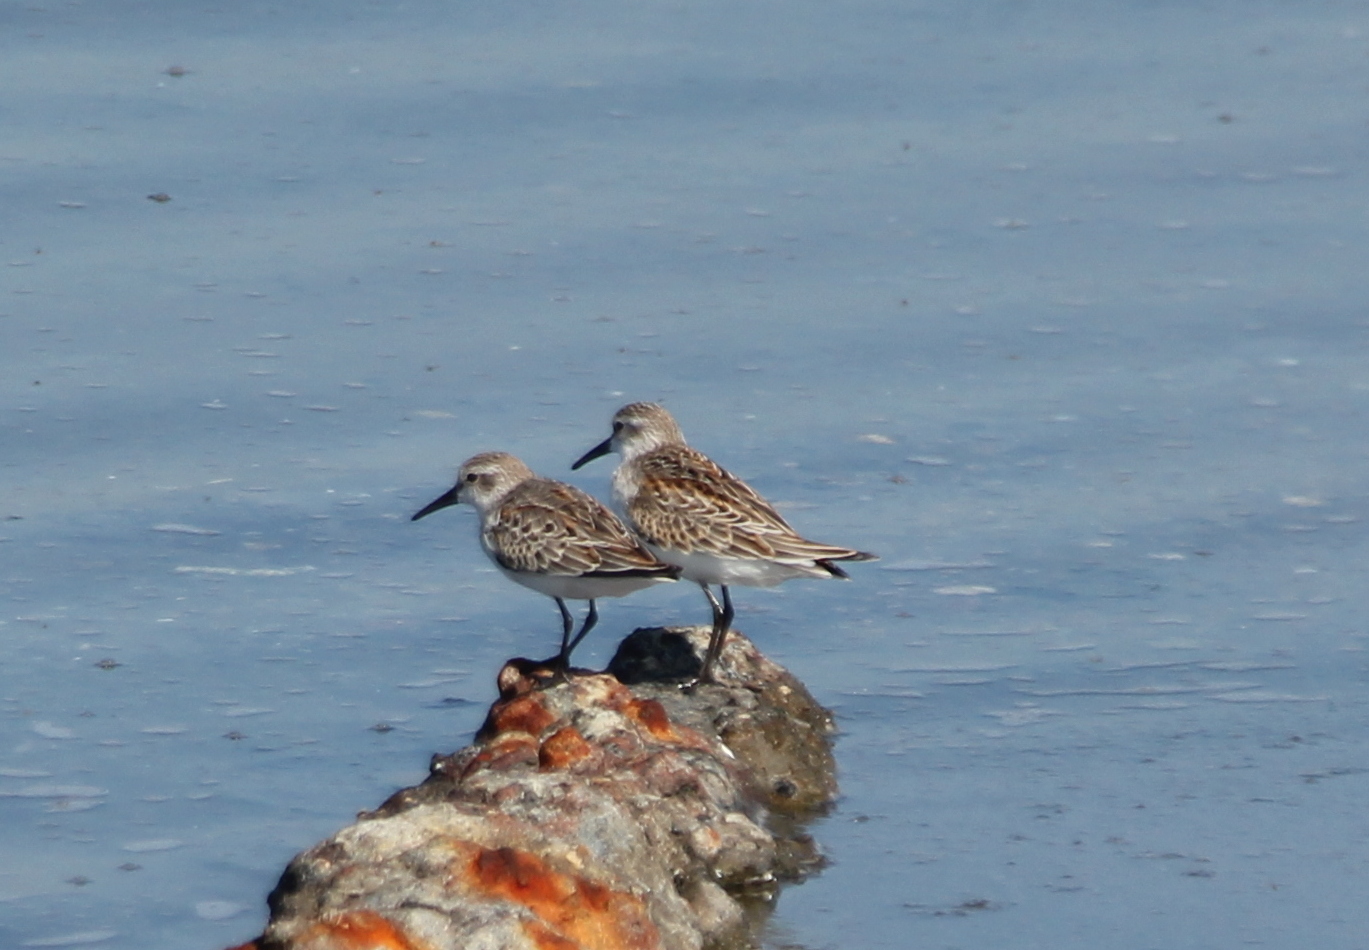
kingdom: Animalia
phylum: Chordata
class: Aves
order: Charadriiformes
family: Scolopacidae
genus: Calidris
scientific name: Calidris mauri
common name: Western sandpiper
